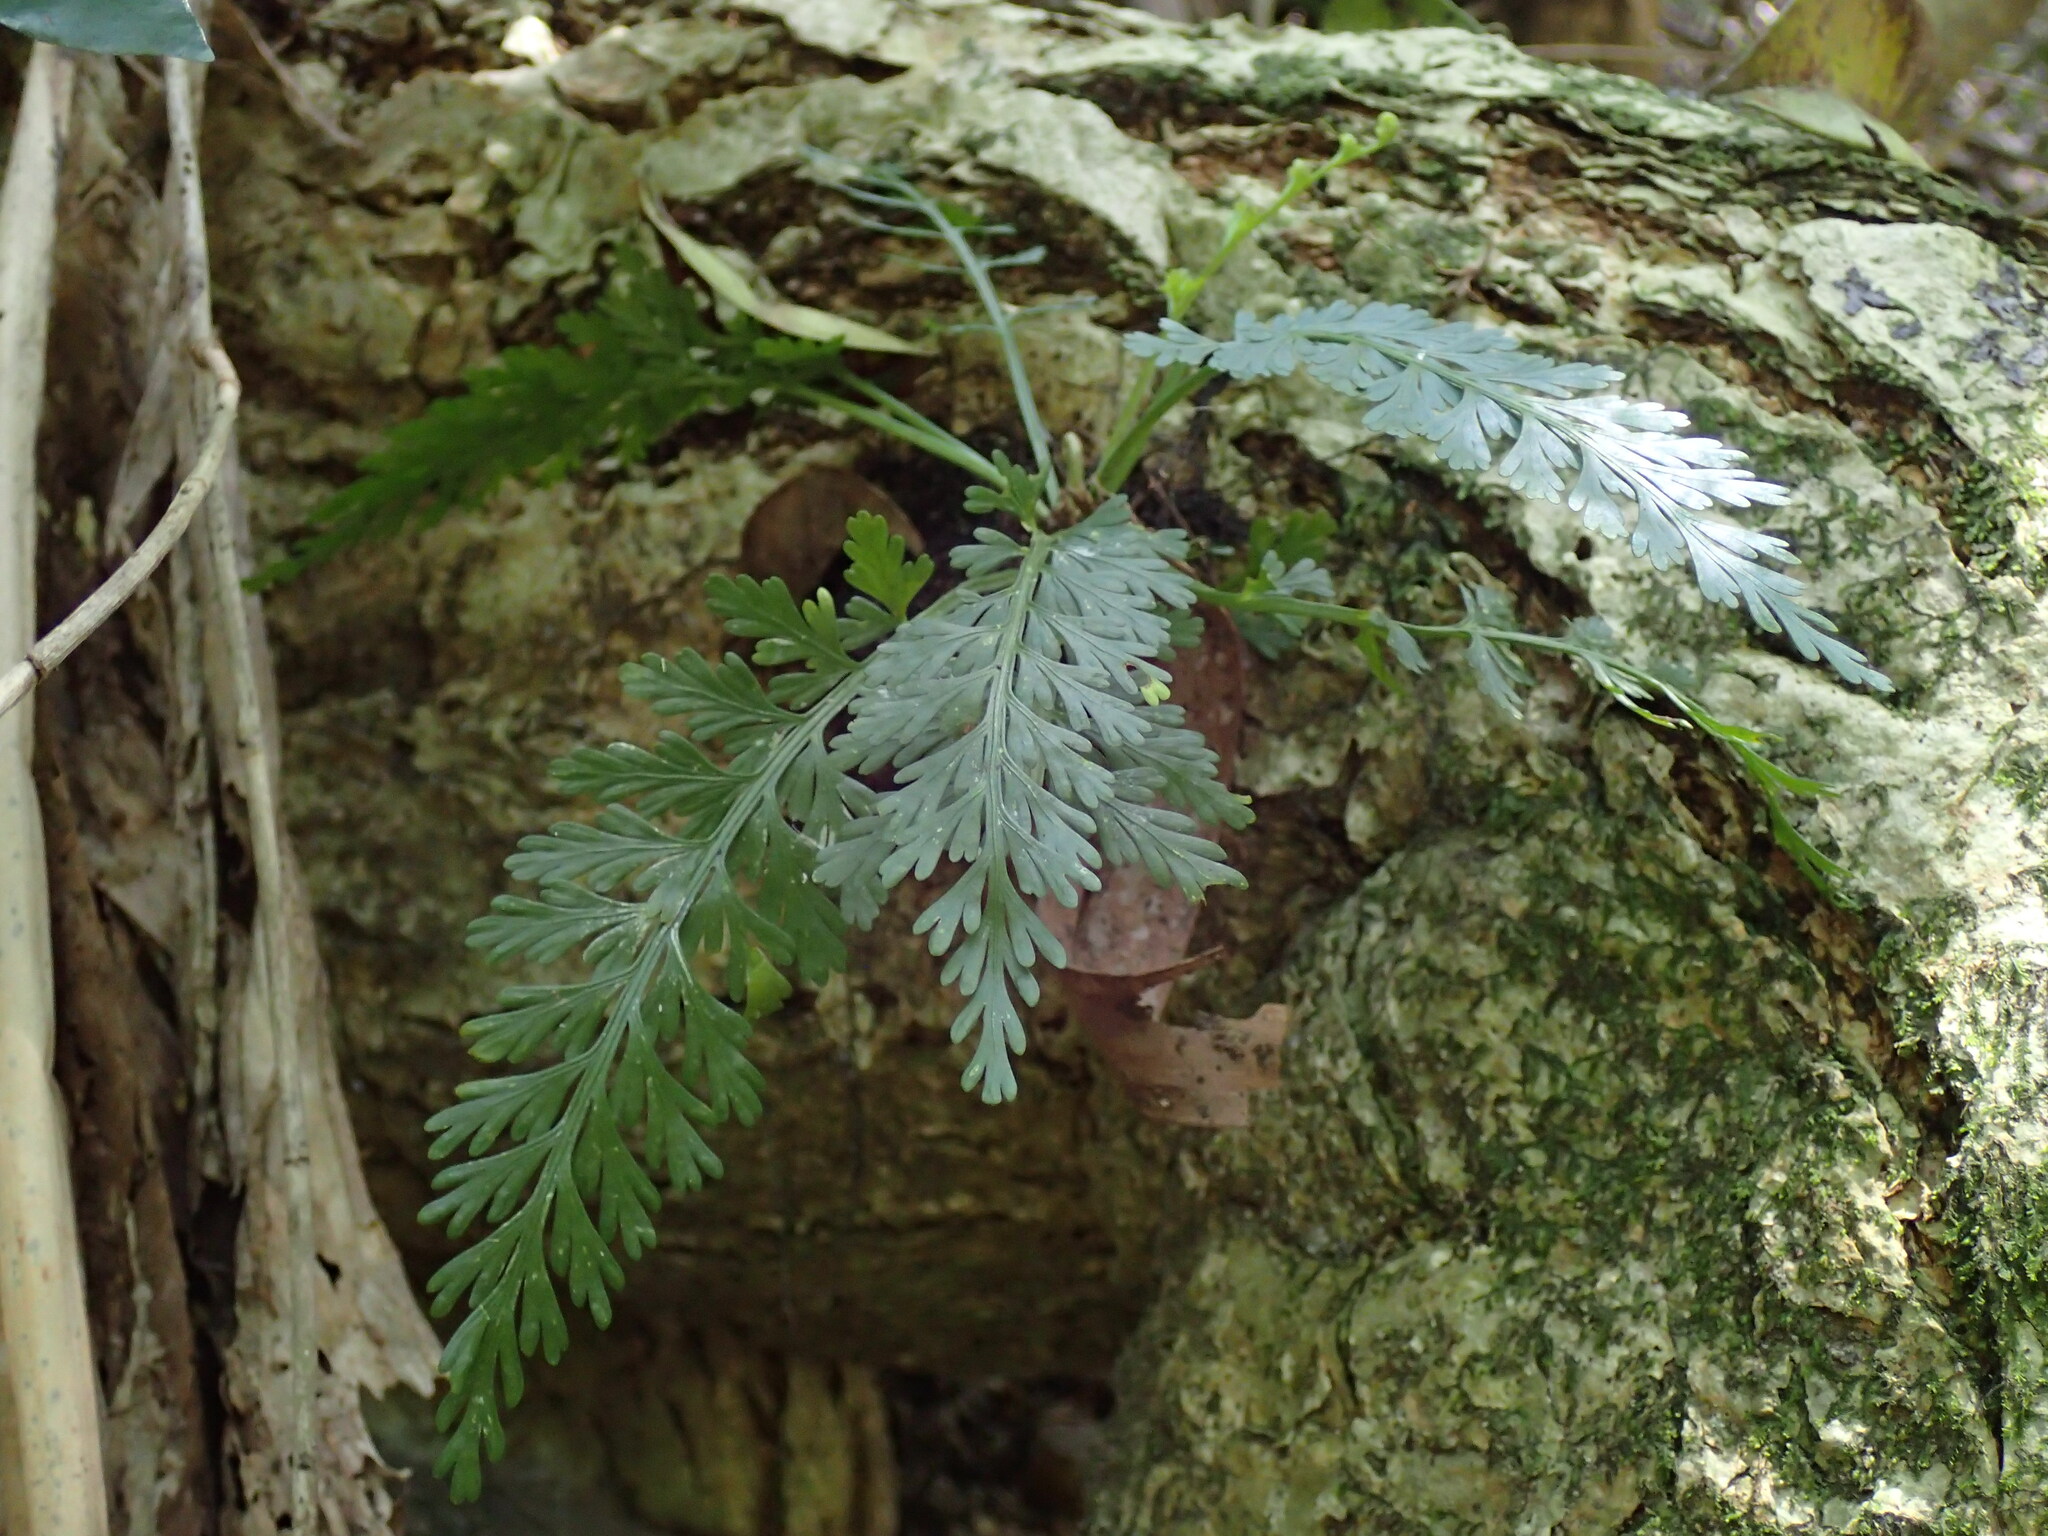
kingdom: Plantae
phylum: Tracheophyta
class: Polypodiopsida
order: Polypodiales
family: Aspleniaceae
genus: Asplenium
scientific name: Asplenium rutifolium
